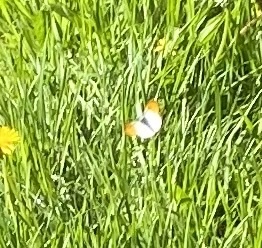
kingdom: Animalia
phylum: Arthropoda
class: Insecta
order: Lepidoptera
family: Pieridae
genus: Anthocharis
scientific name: Anthocharis cardamines
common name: Orange-tip
